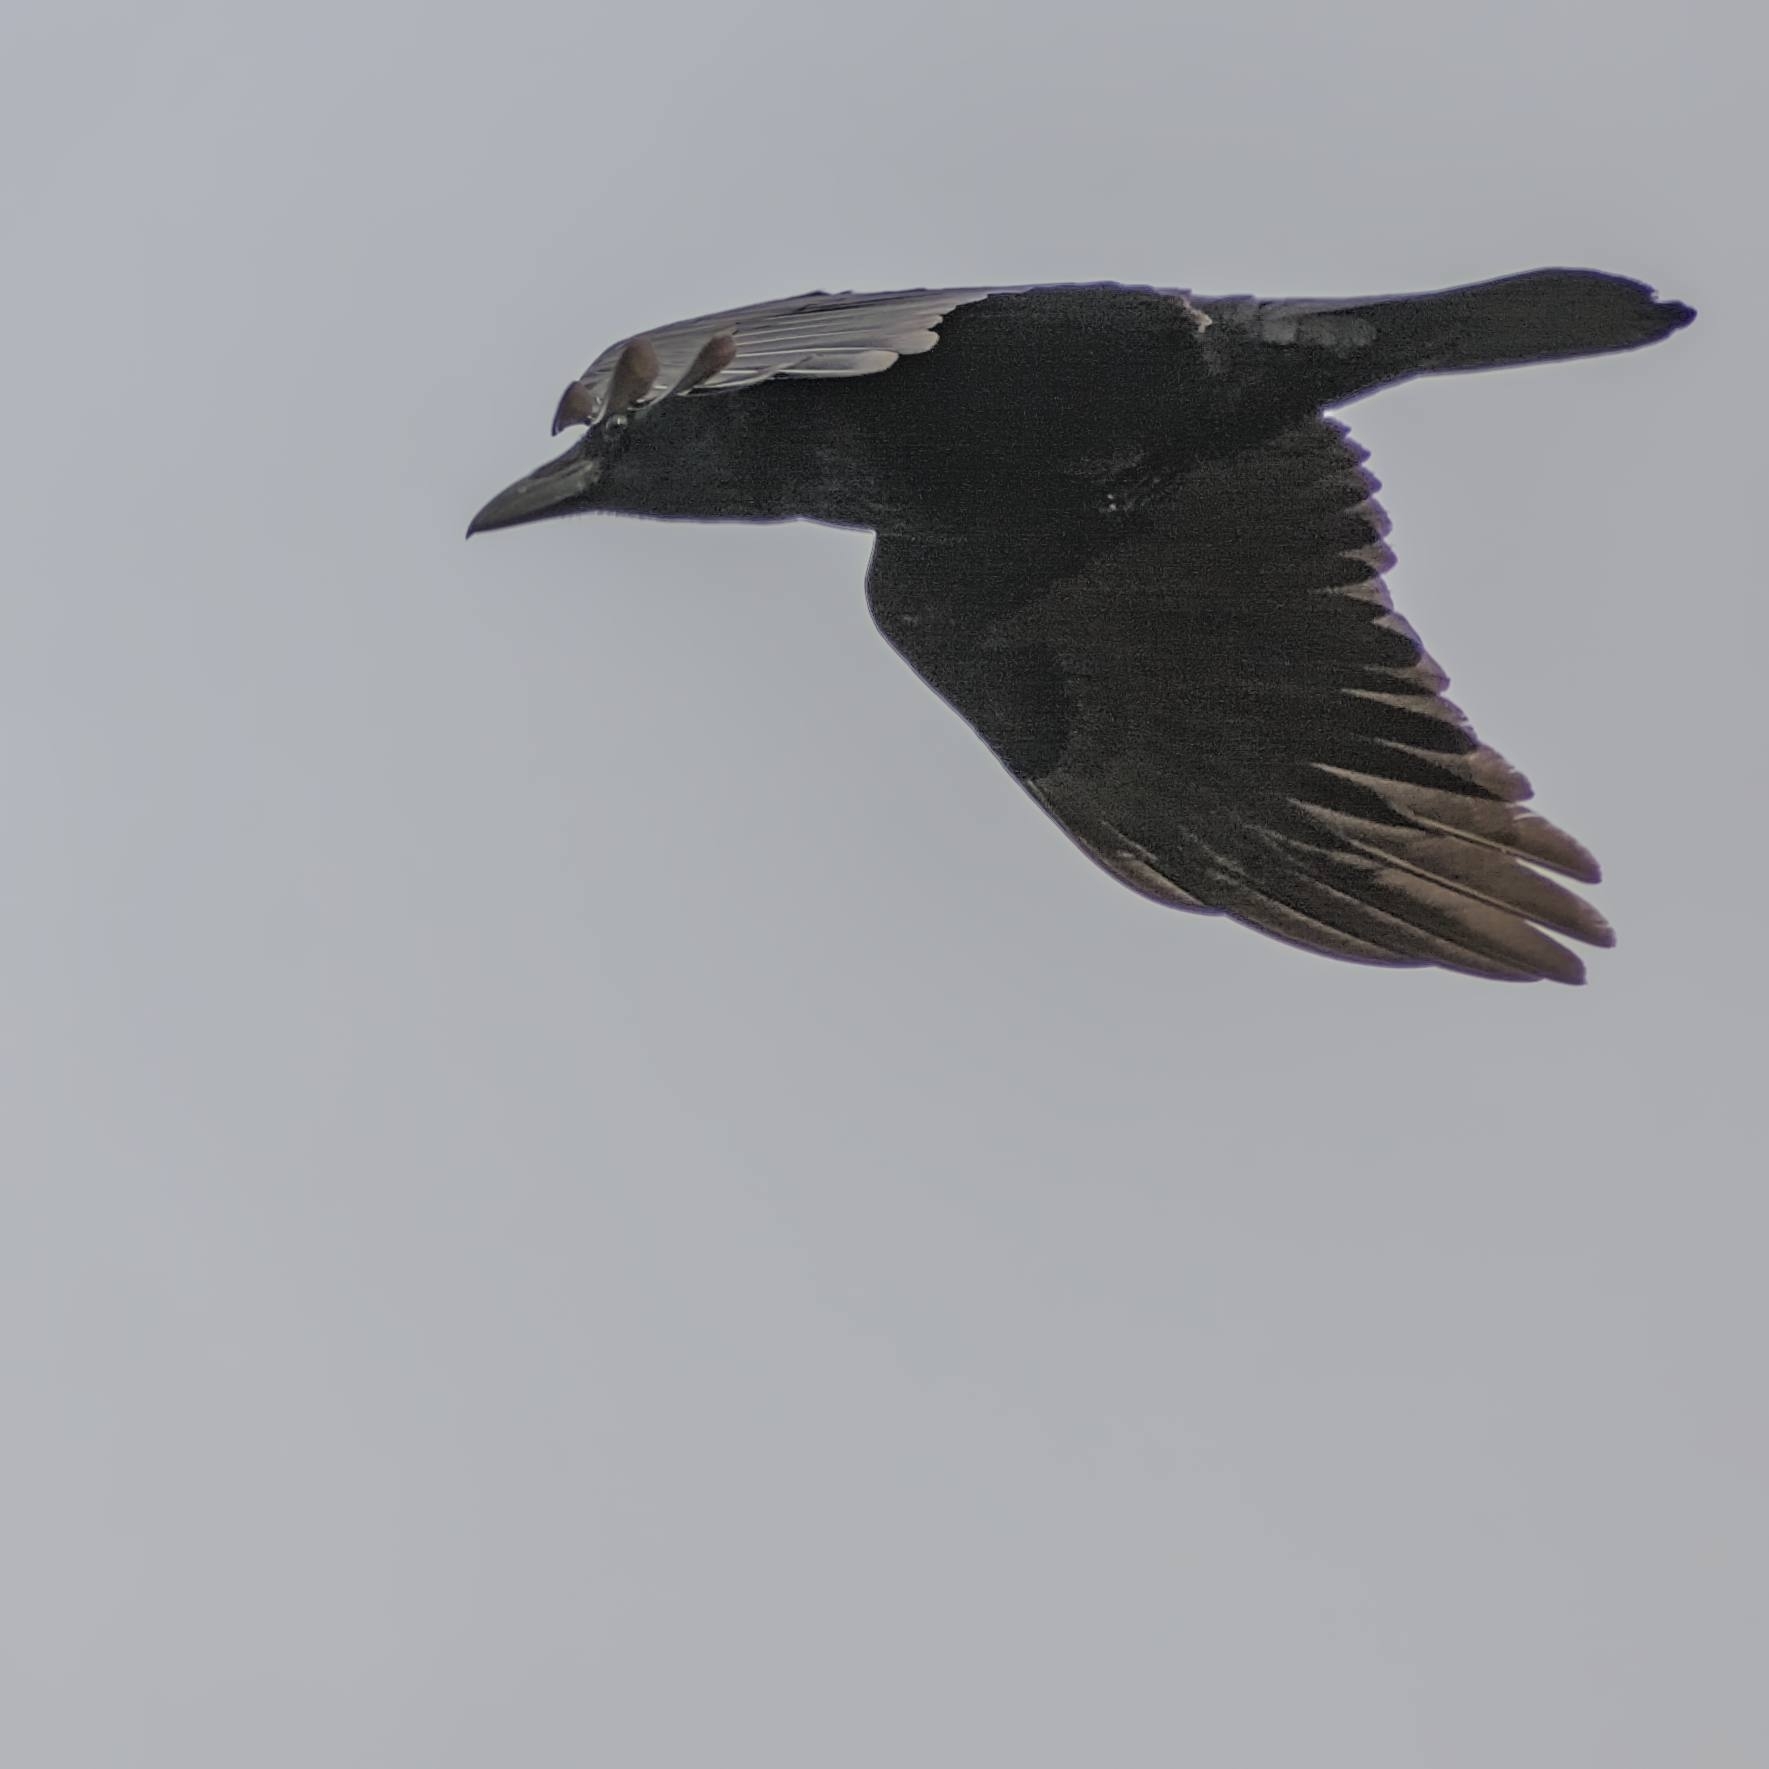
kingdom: Animalia
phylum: Chordata
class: Aves
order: Passeriformes
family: Corvidae
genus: Corvus
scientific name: Corvus corax
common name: Common raven
